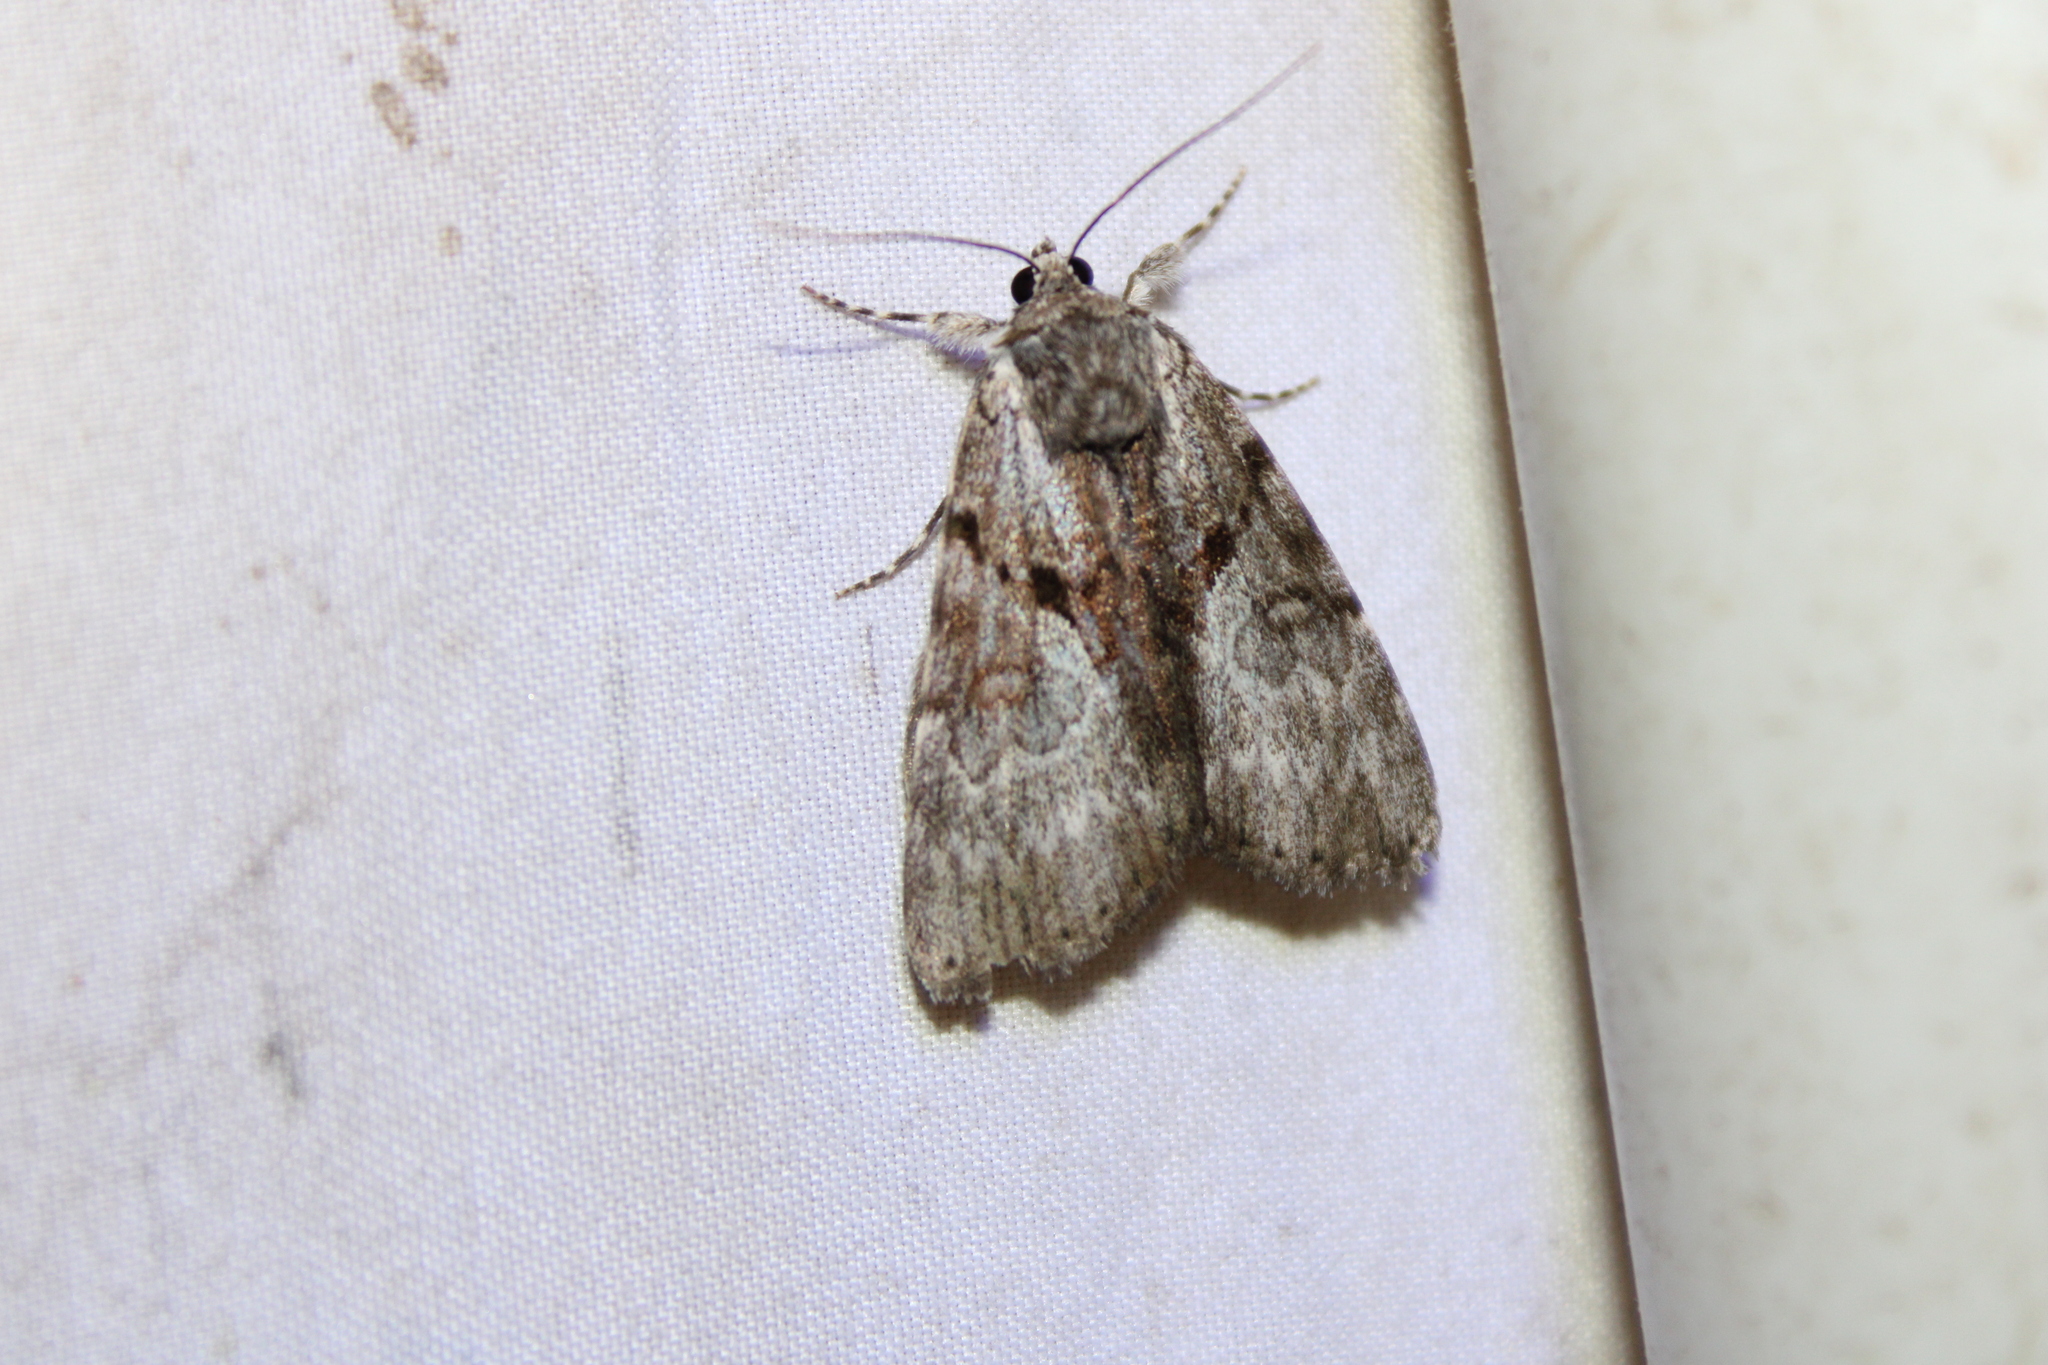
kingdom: Animalia
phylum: Arthropoda
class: Insecta
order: Lepidoptera
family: Erebidae
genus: Catocala
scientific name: Catocala andromedae
